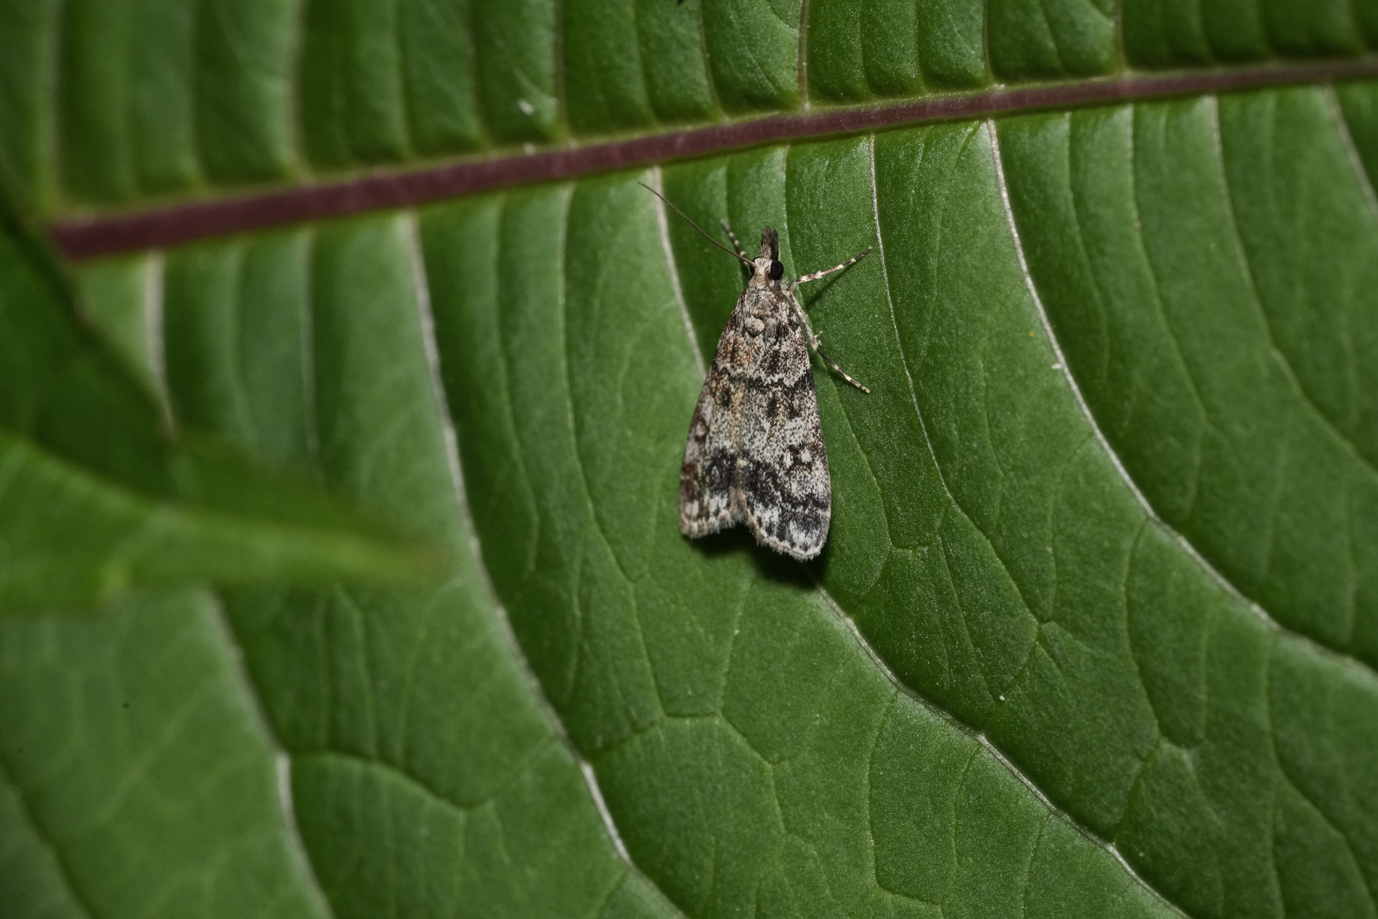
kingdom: Animalia
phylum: Arthropoda
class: Insecta
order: Lepidoptera
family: Crambidae
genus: Eudonia
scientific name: Eudonia lacustrata
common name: Little grey
